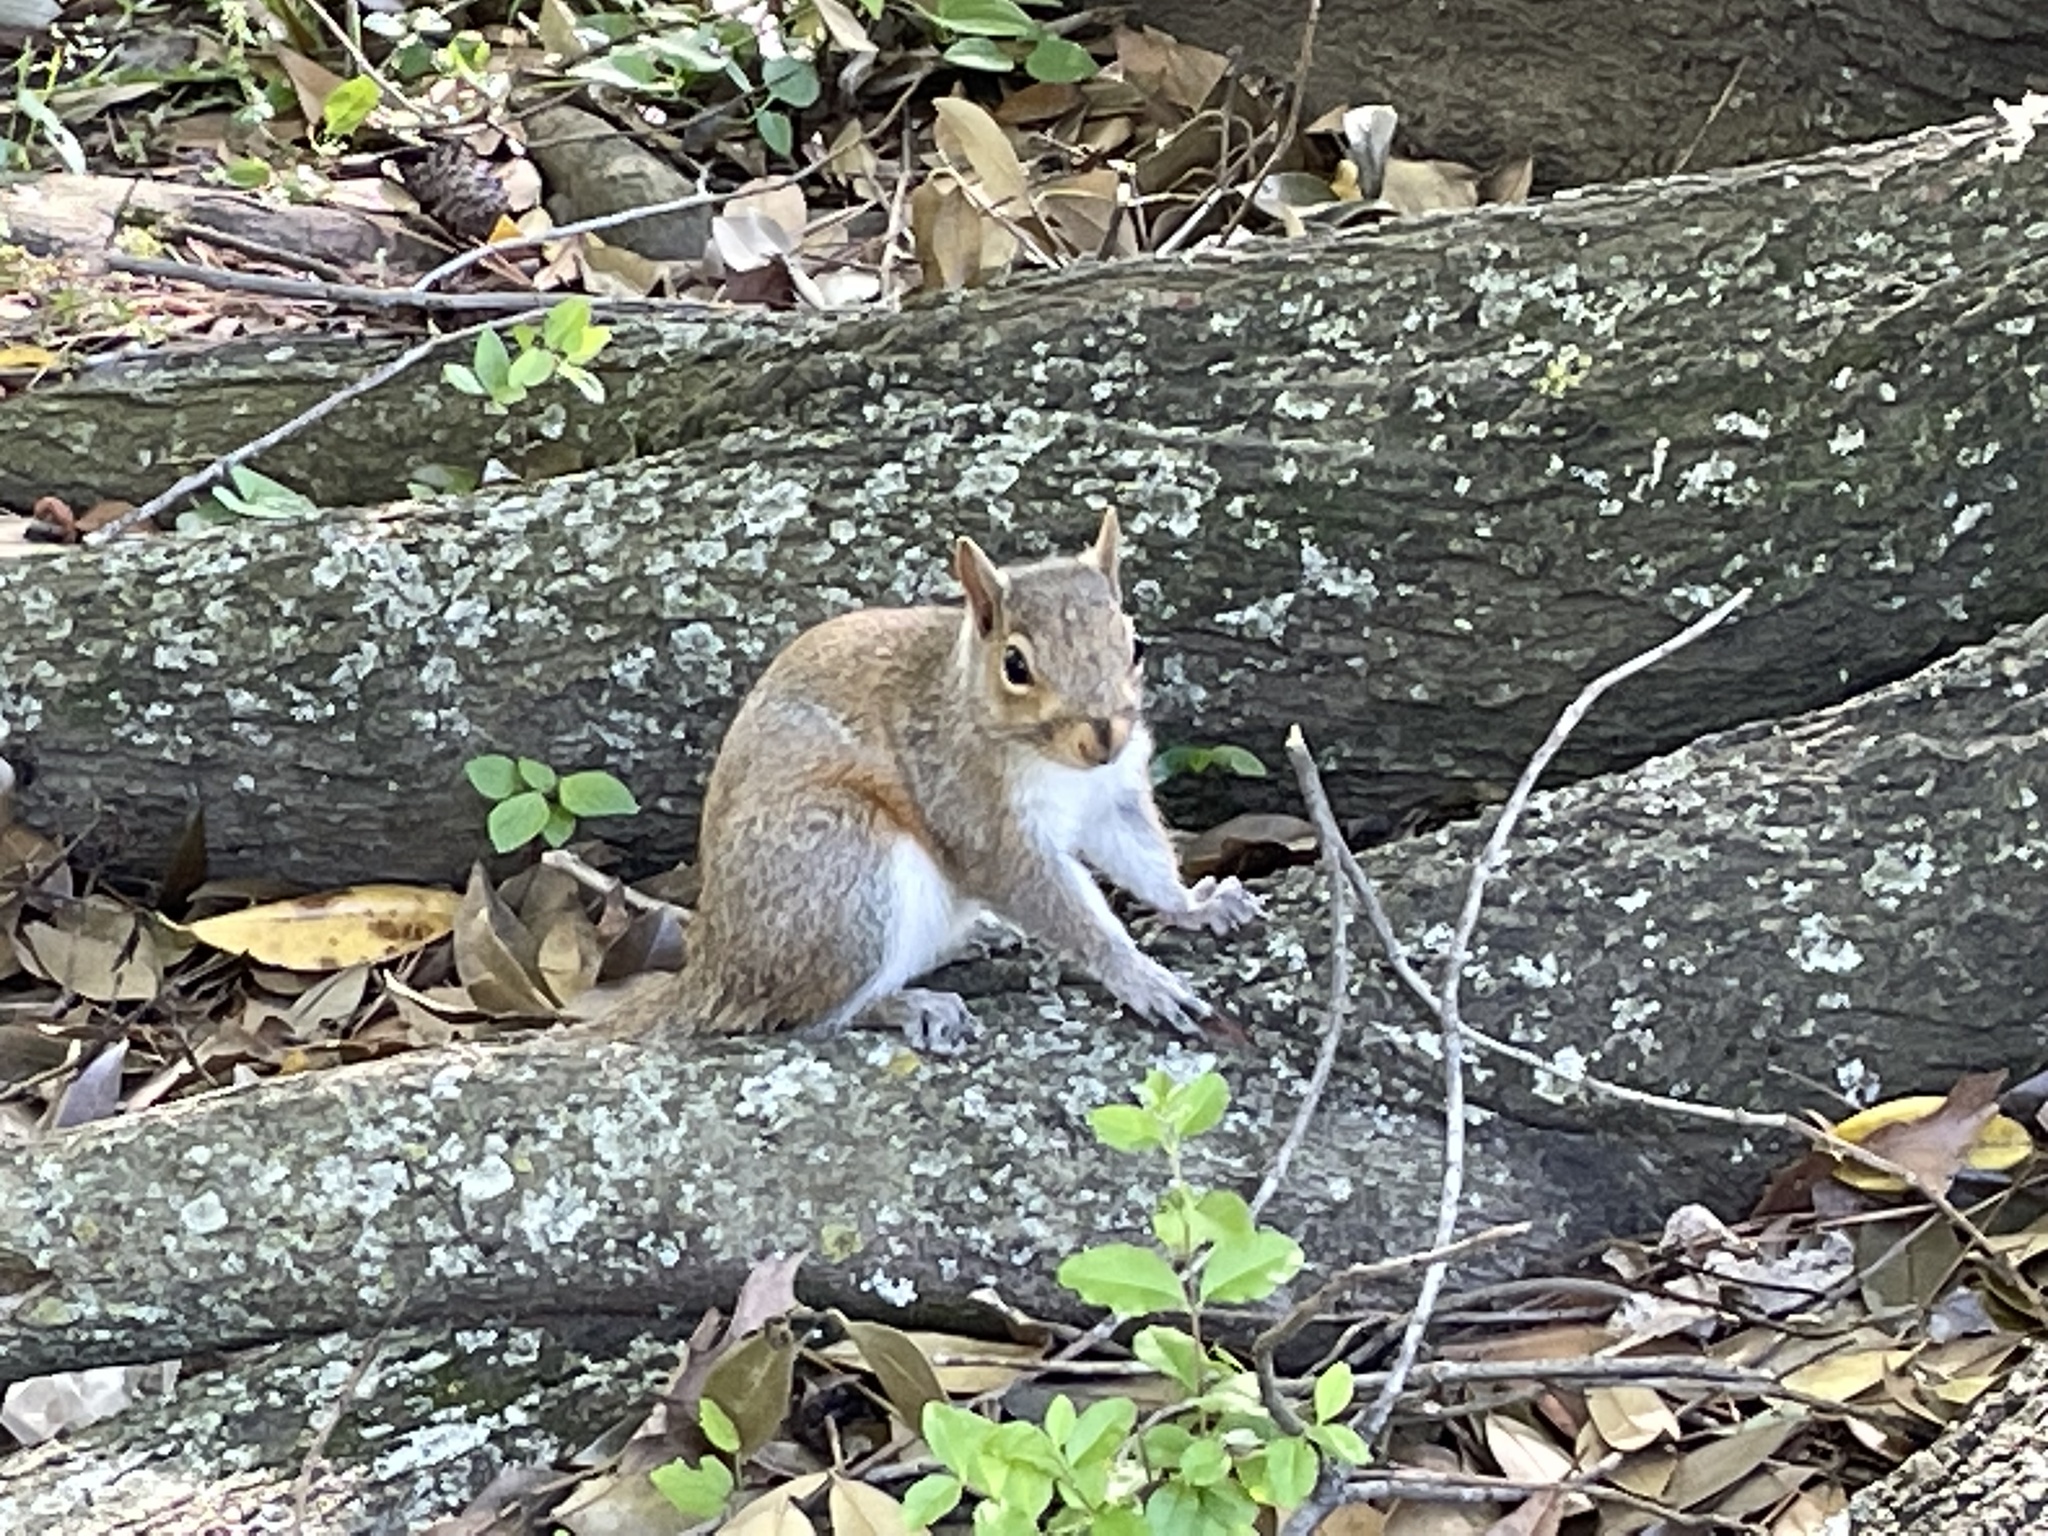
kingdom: Animalia
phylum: Chordata
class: Mammalia
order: Rodentia
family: Sciuridae
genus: Sciurus
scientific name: Sciurus carolinensis
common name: Eastern gray squirrel
